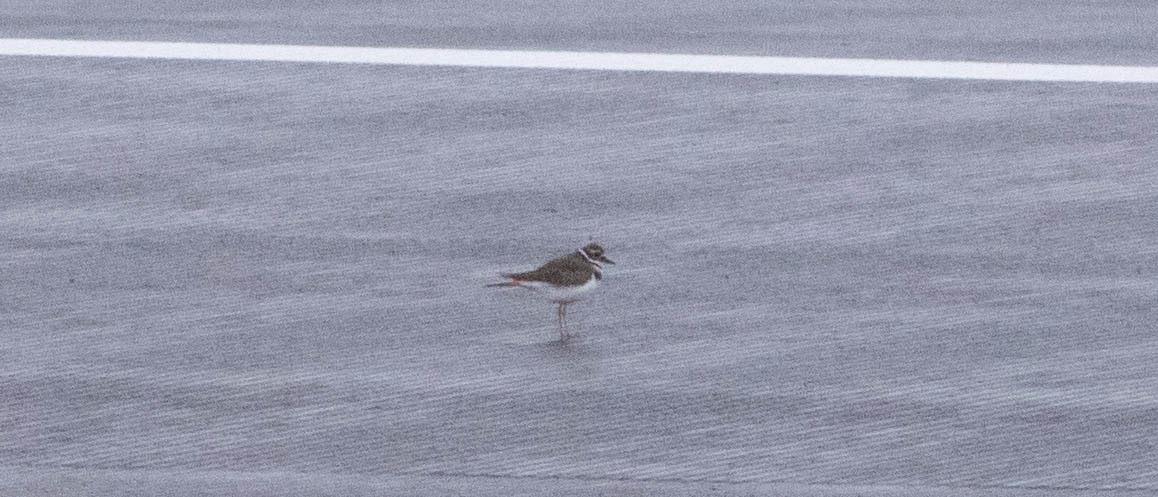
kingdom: Animalia
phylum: Chordata
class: Aves
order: Charadriiformes
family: Charadriidae
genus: Charadrius
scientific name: Charadrius vociferus
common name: Killdeer
